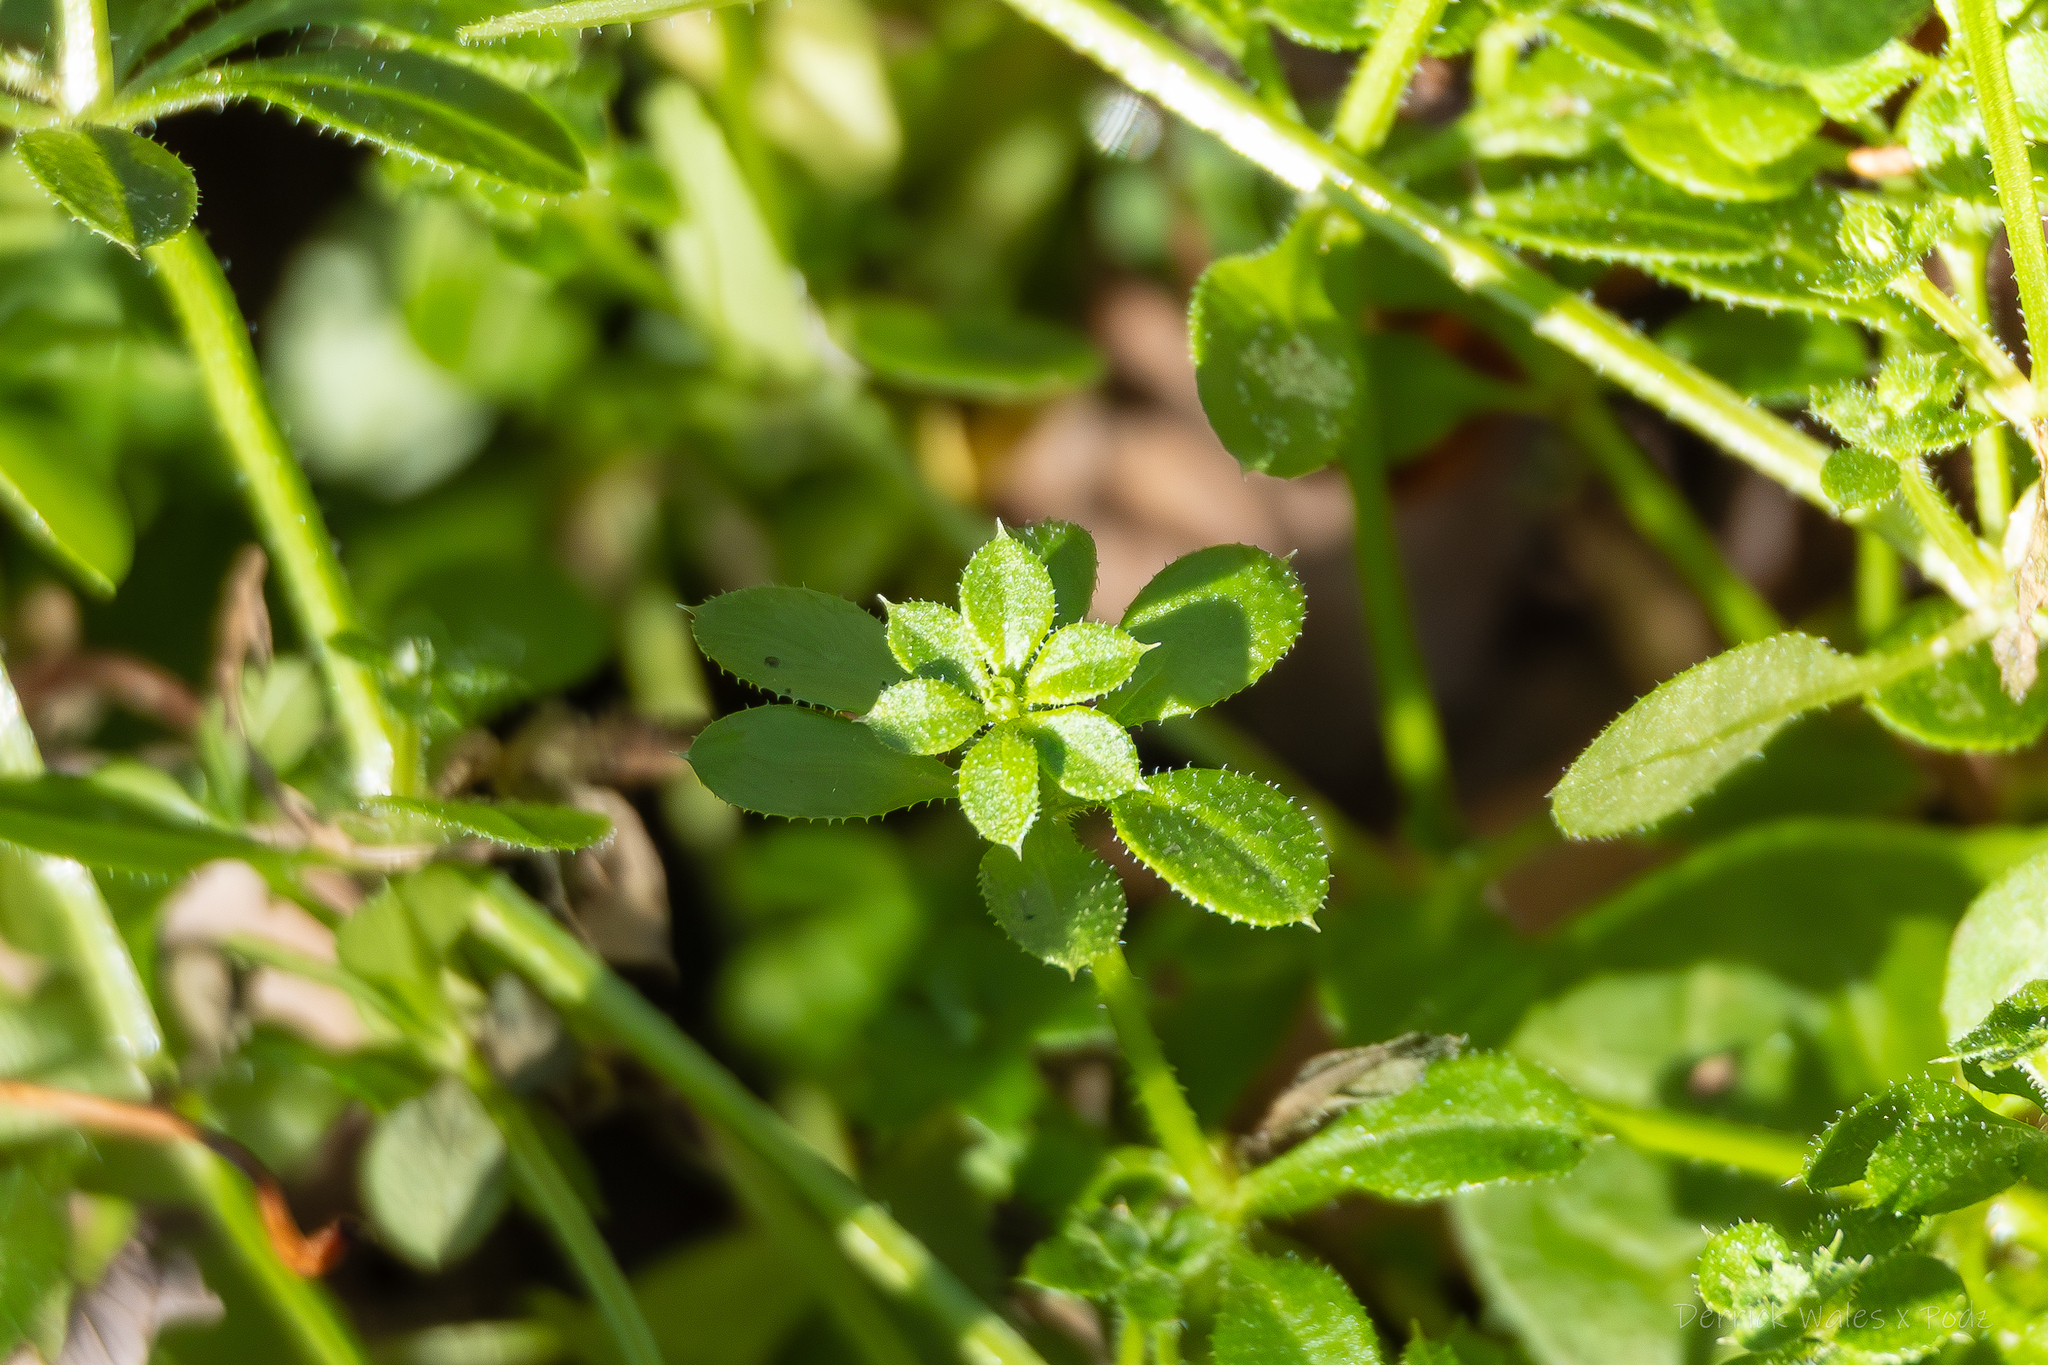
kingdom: Plantae
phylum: Tracheophyta
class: Magnoliopsida
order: Gentianales
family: Rubiaceae
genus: Galium
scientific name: Galium triflorum
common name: Fragrant bedstraw
